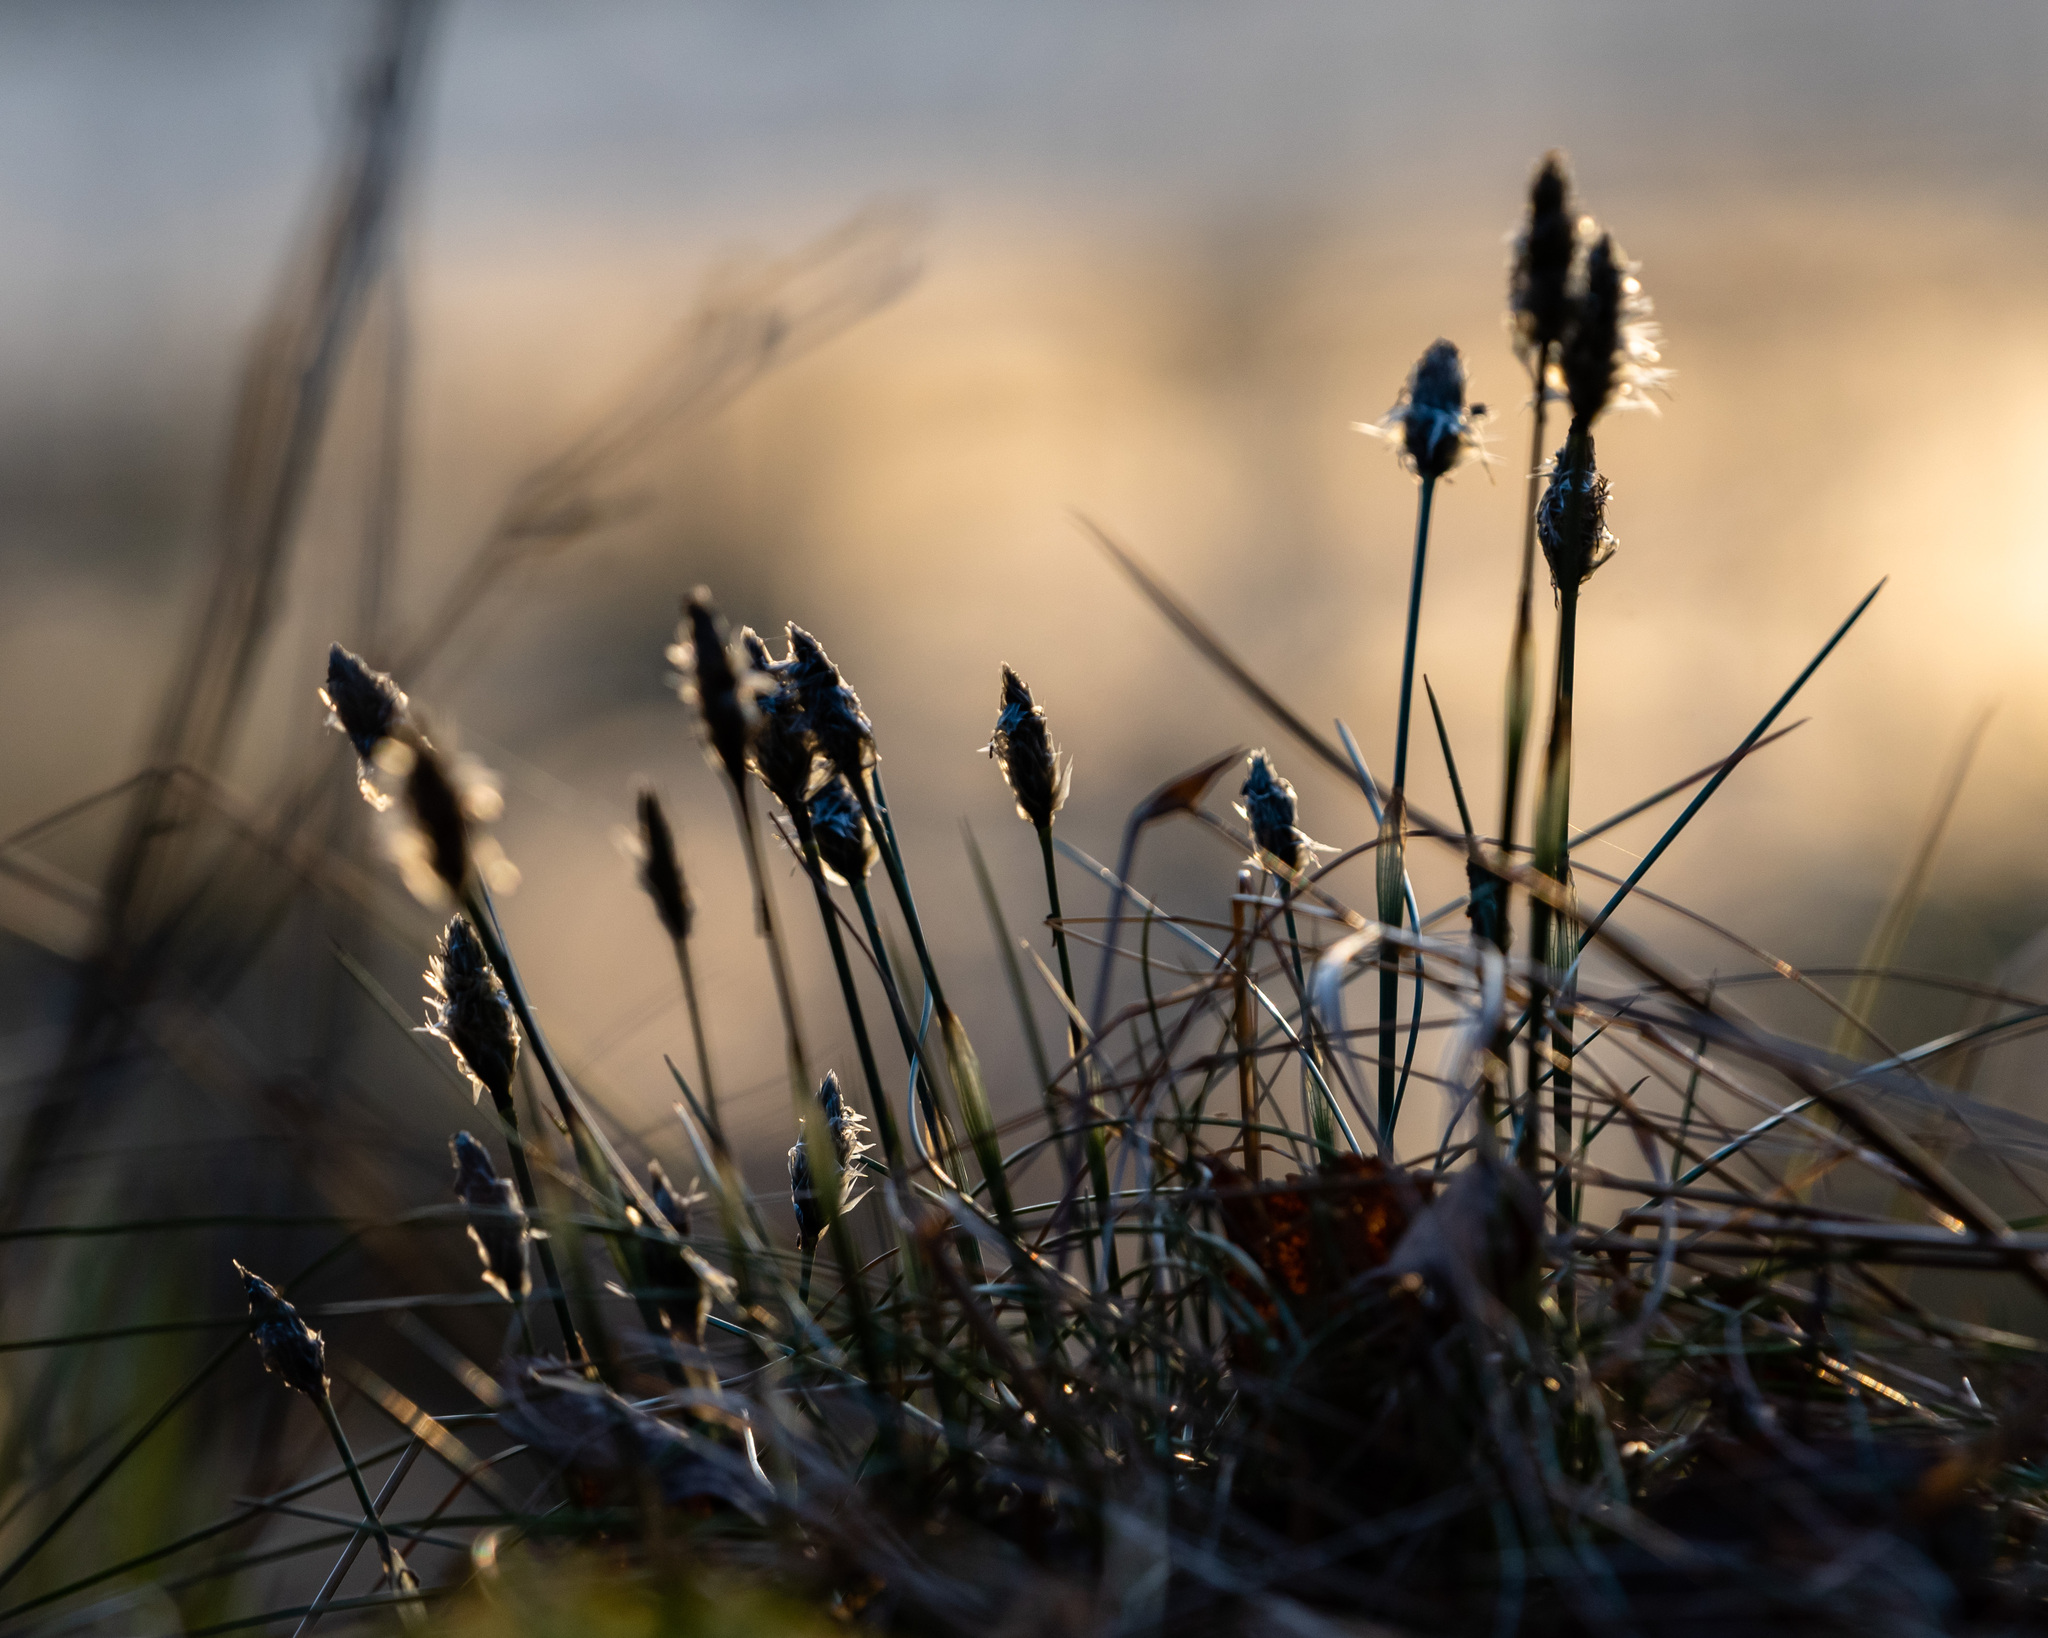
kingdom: Plantae
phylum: Tracheophyta
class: Liliopsida
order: Poales
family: Cyperaceae
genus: Eriophorum
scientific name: Eriophorum vaginatum
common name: Hare's-tail cottongrass
